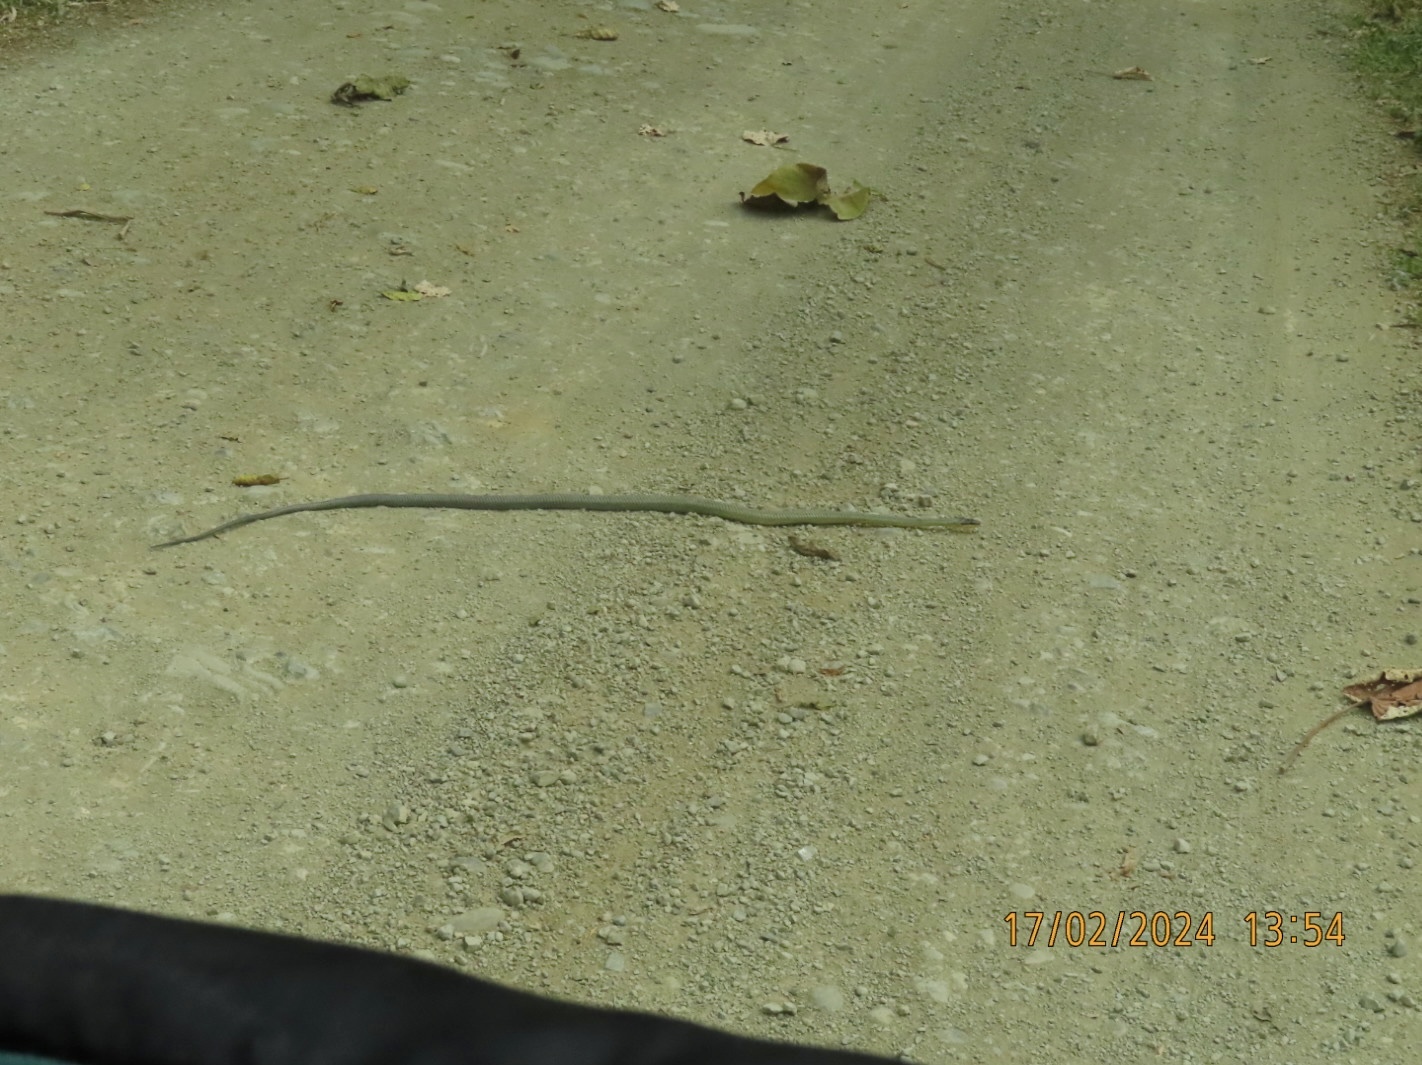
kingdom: Animalia
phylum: Chordata
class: Squamata
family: Colubridae
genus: Phrynonax
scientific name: Phrynonax poecilonotus
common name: Puffing snake
